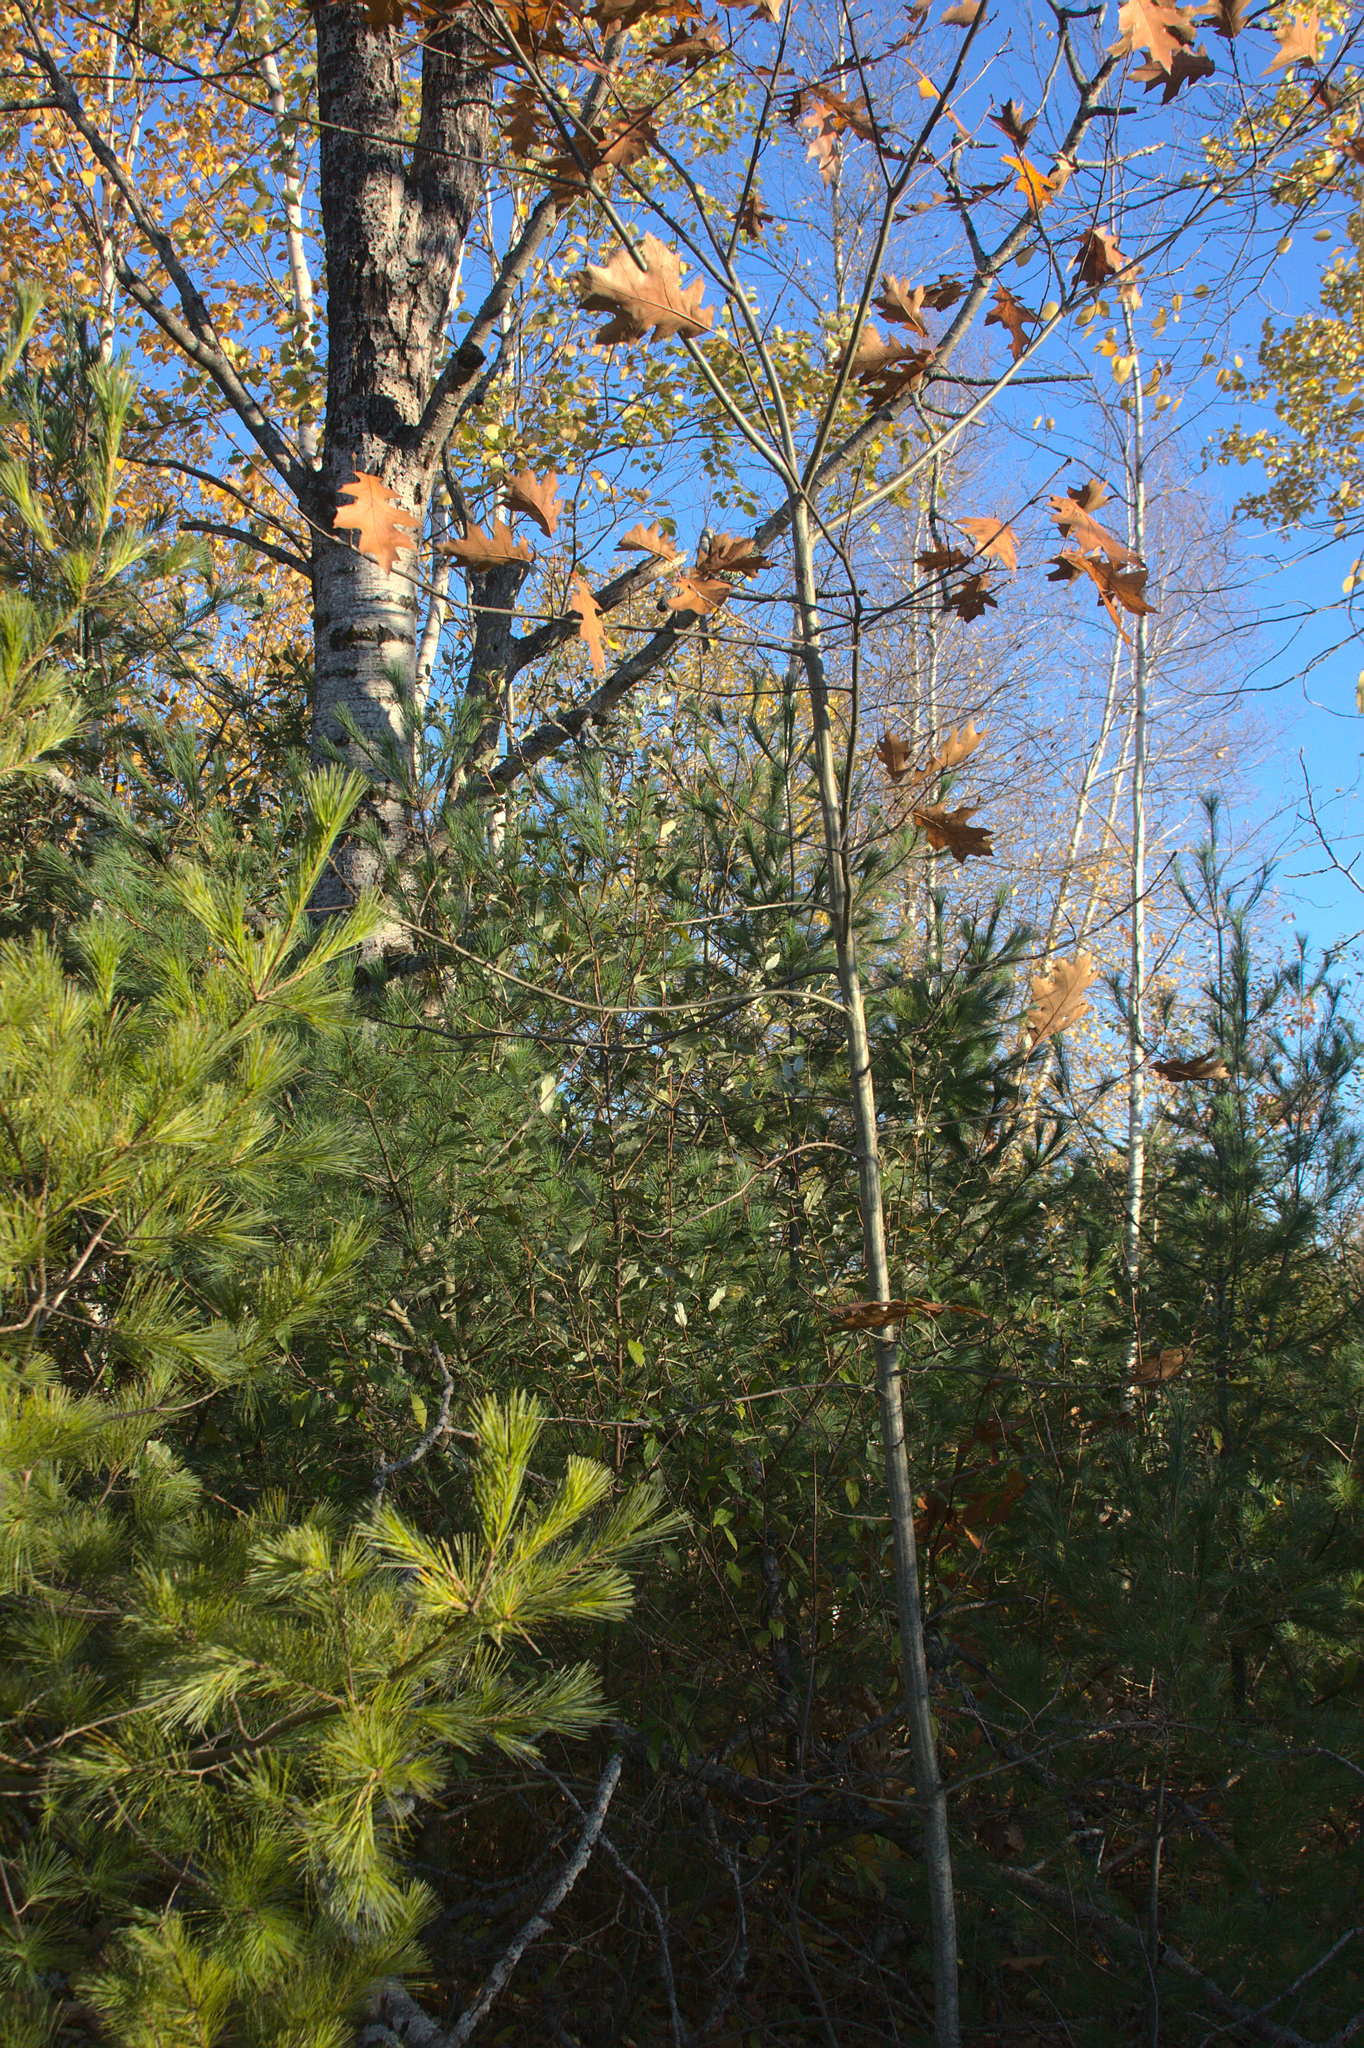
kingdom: Plantae
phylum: Tracheophyta
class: Pinopsida
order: Pinales
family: Pinaceae
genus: Pinus
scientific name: Pinus strobus
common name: Weymouth pine
